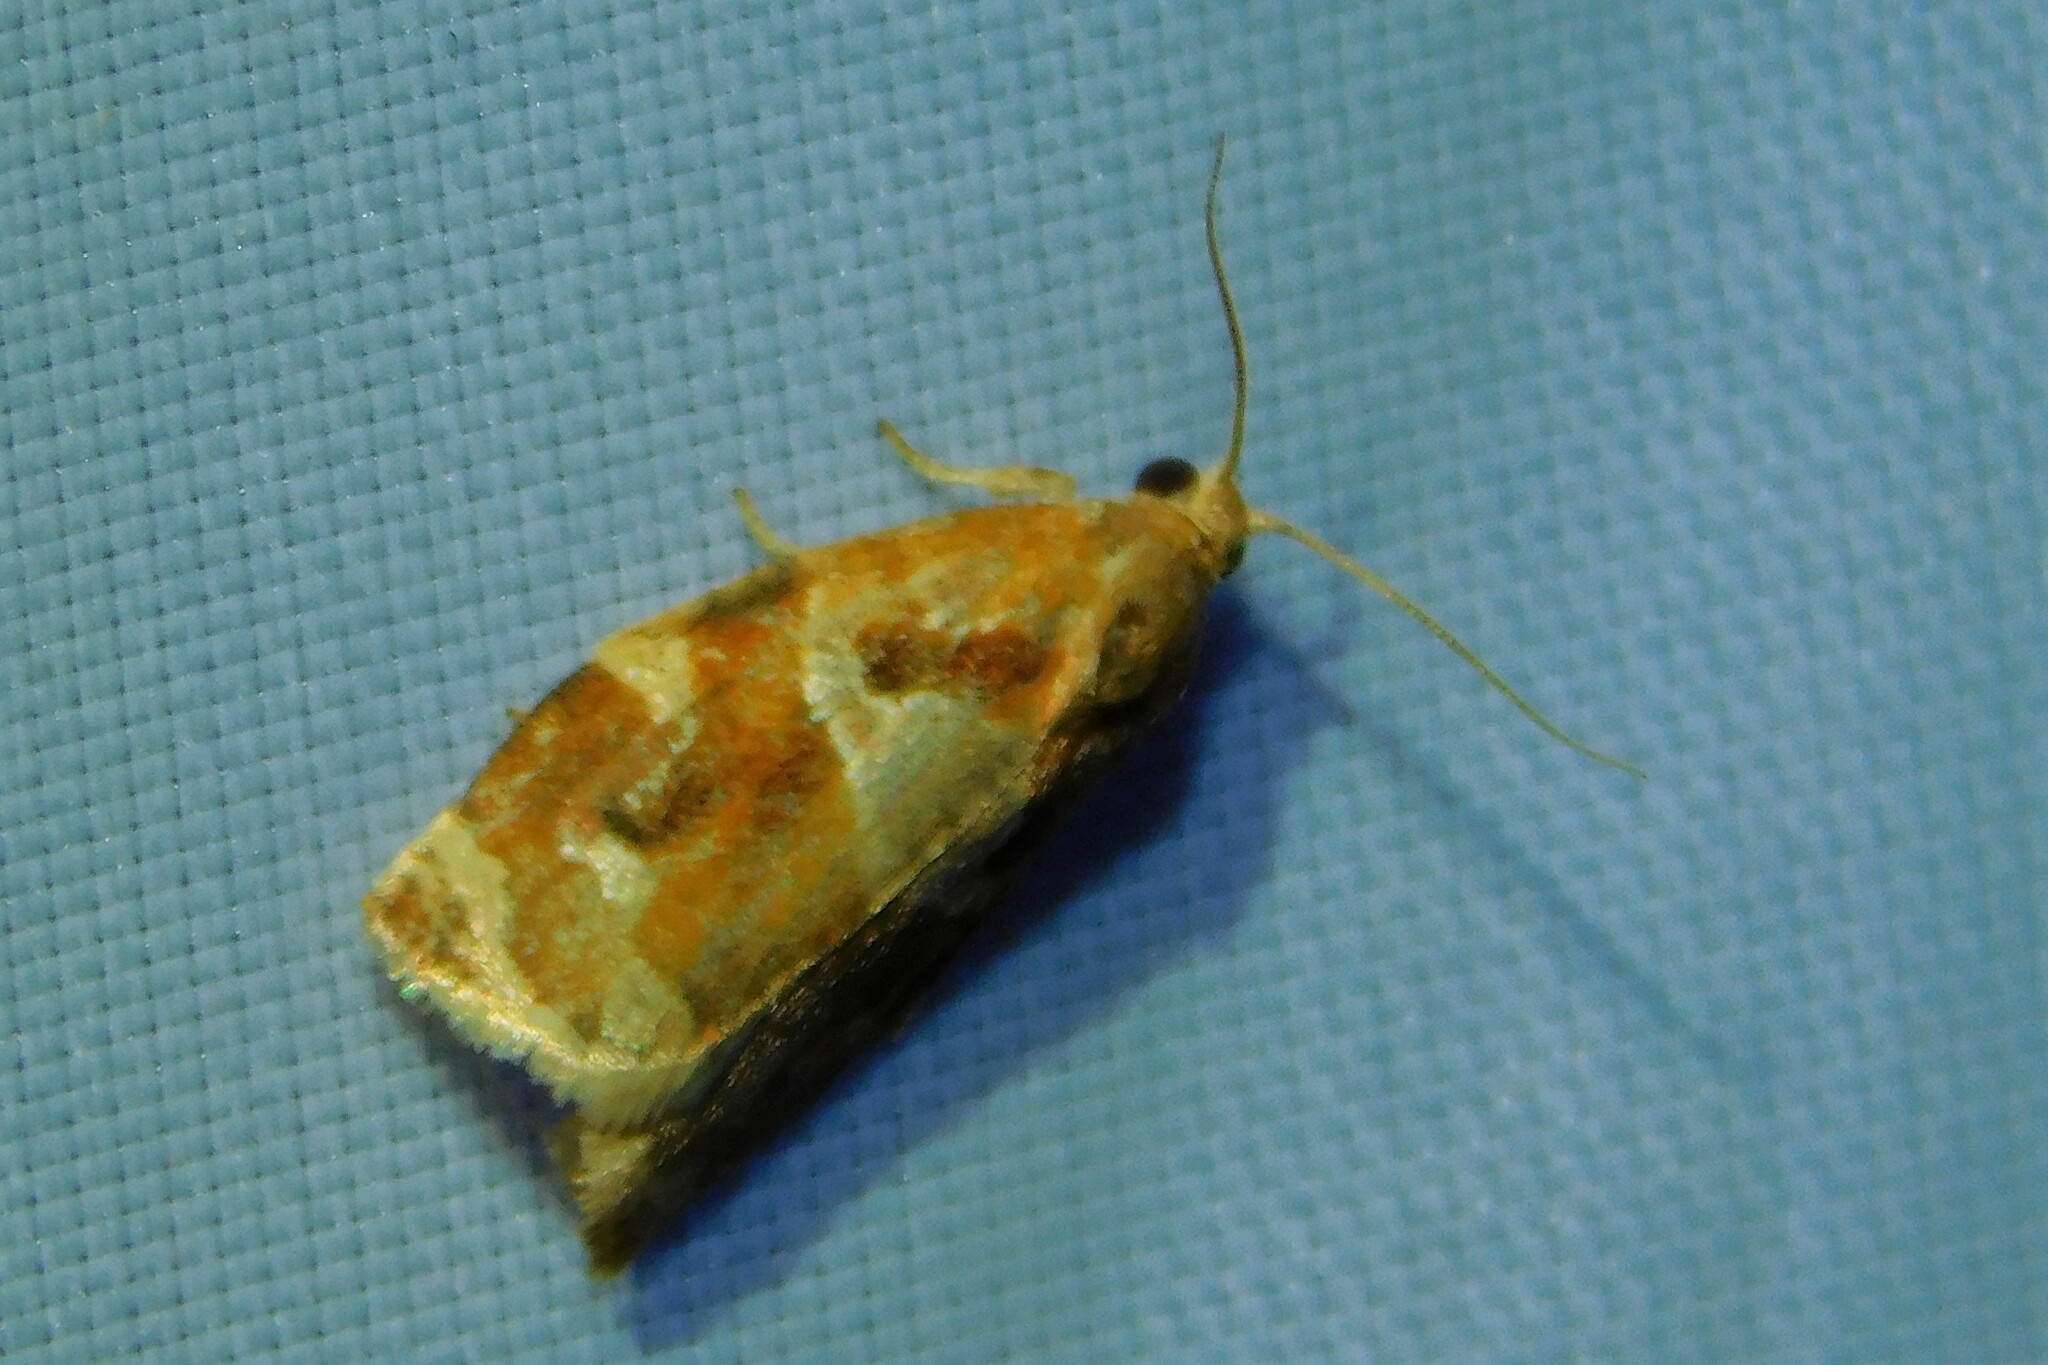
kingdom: Animalia
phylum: Arthropoda
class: Insecta
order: Lepidoptera
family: Tortricidae
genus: Archips
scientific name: Archips xylosteana
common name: Variegated golden tortrix
